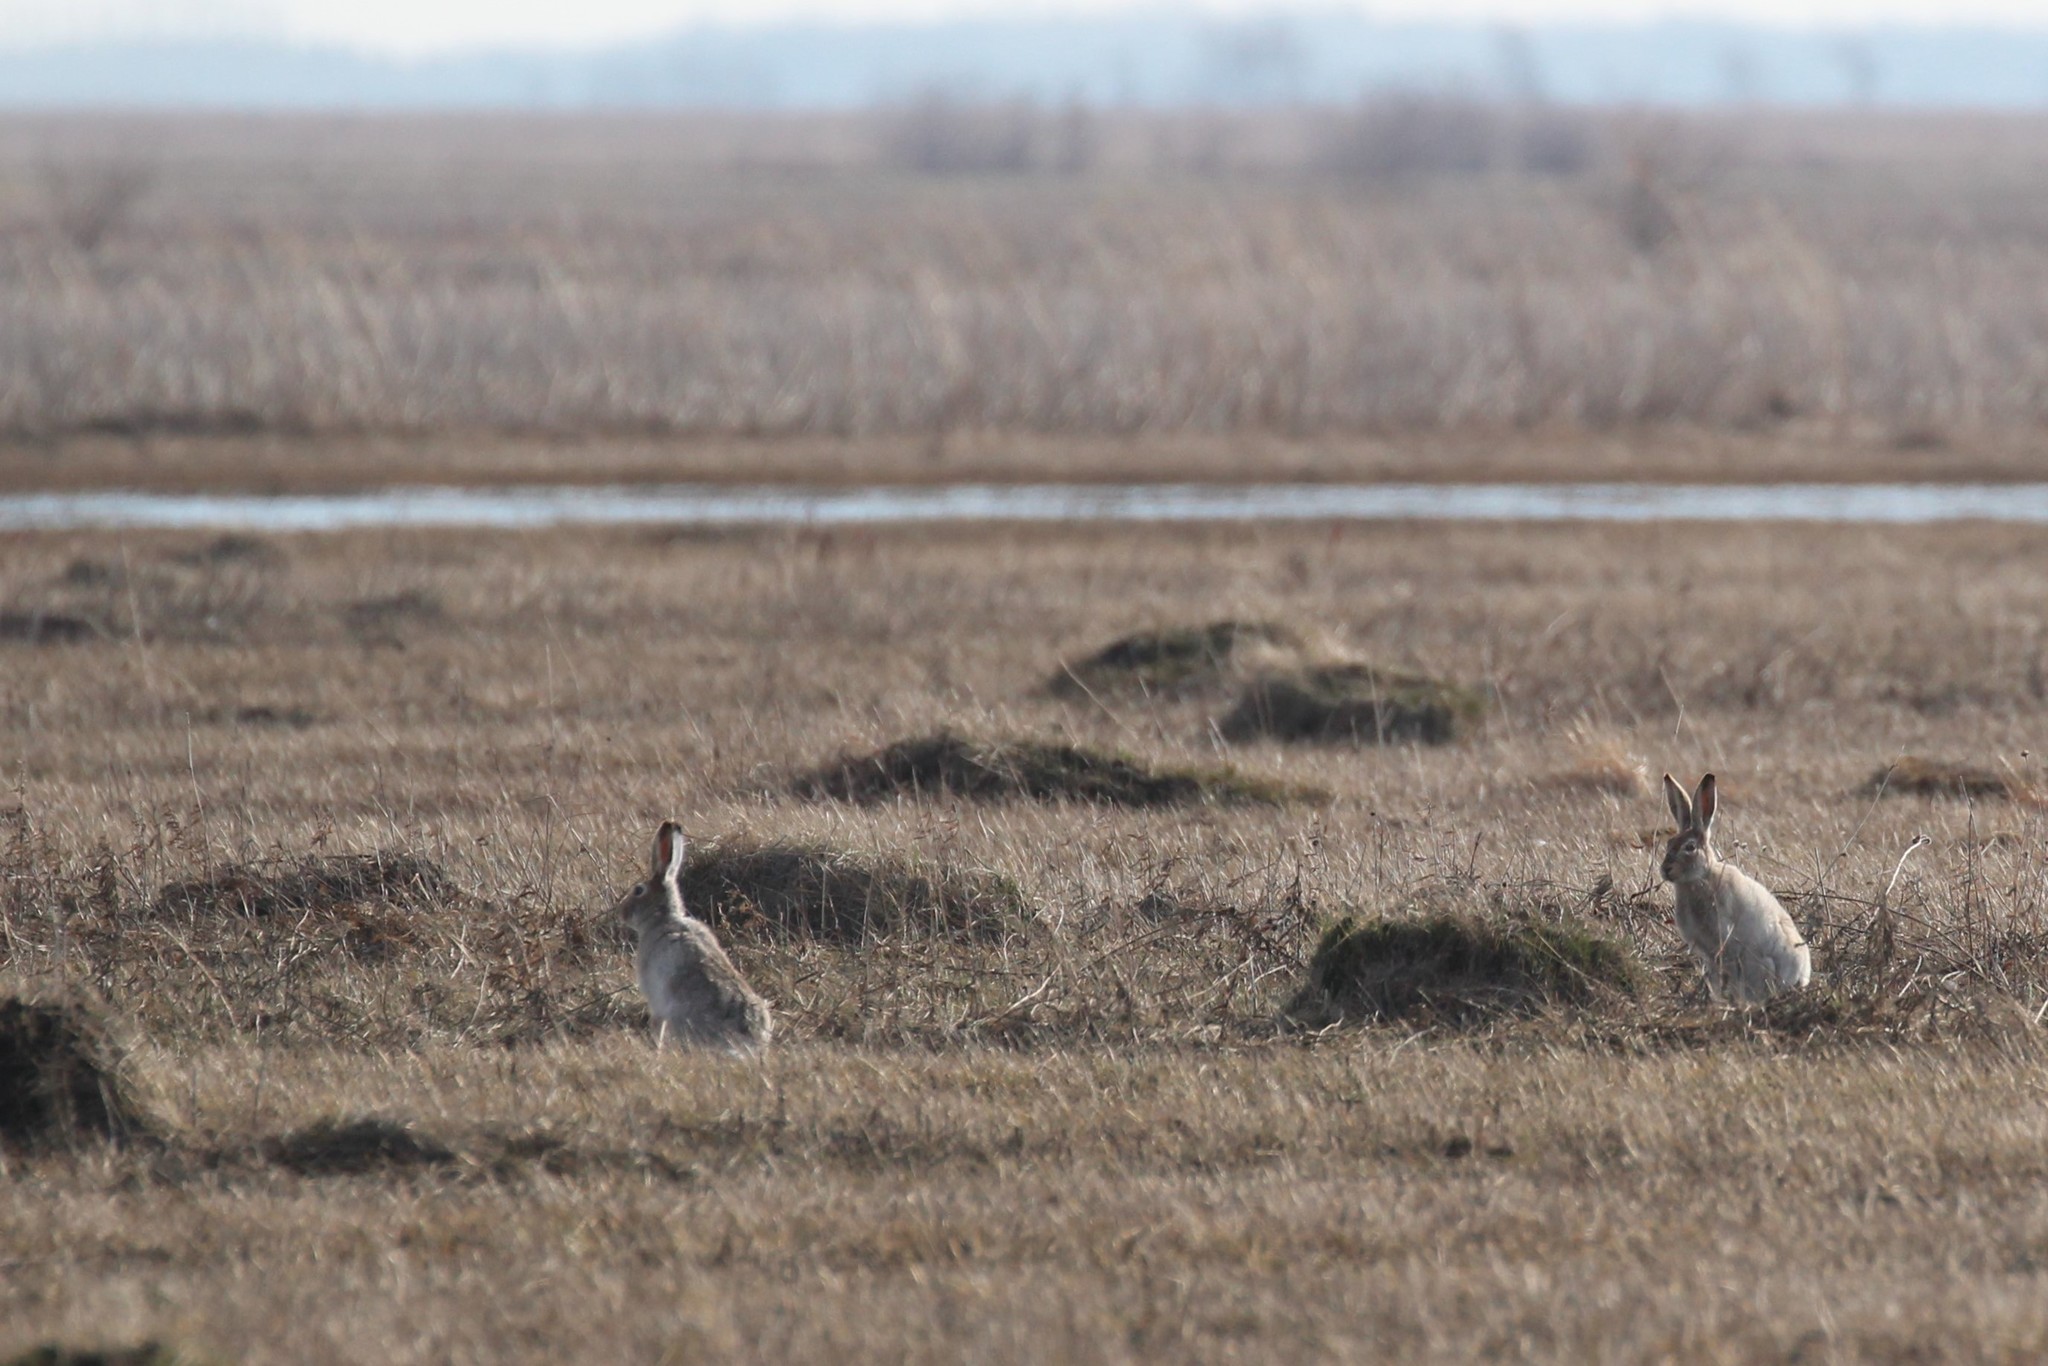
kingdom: Animalia
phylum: Chordata
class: Mammalia
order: Lagomorpha
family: Leporidae
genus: Lepus
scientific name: Lepus townsendii
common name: White-tailed jackrabbit
